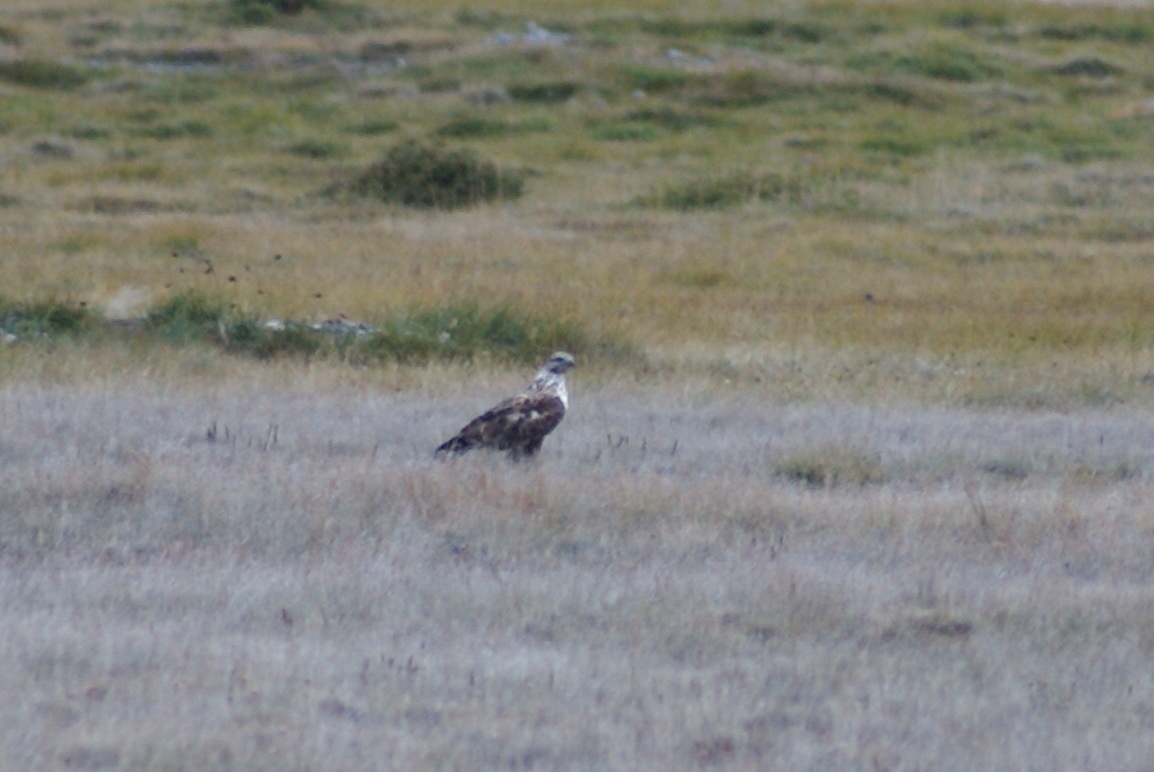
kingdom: Animalia
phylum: Chordata
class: Aves
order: Accipitriformes
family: Accipitridae
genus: Buteo
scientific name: Buteo hemilasius
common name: Upland buzzard
